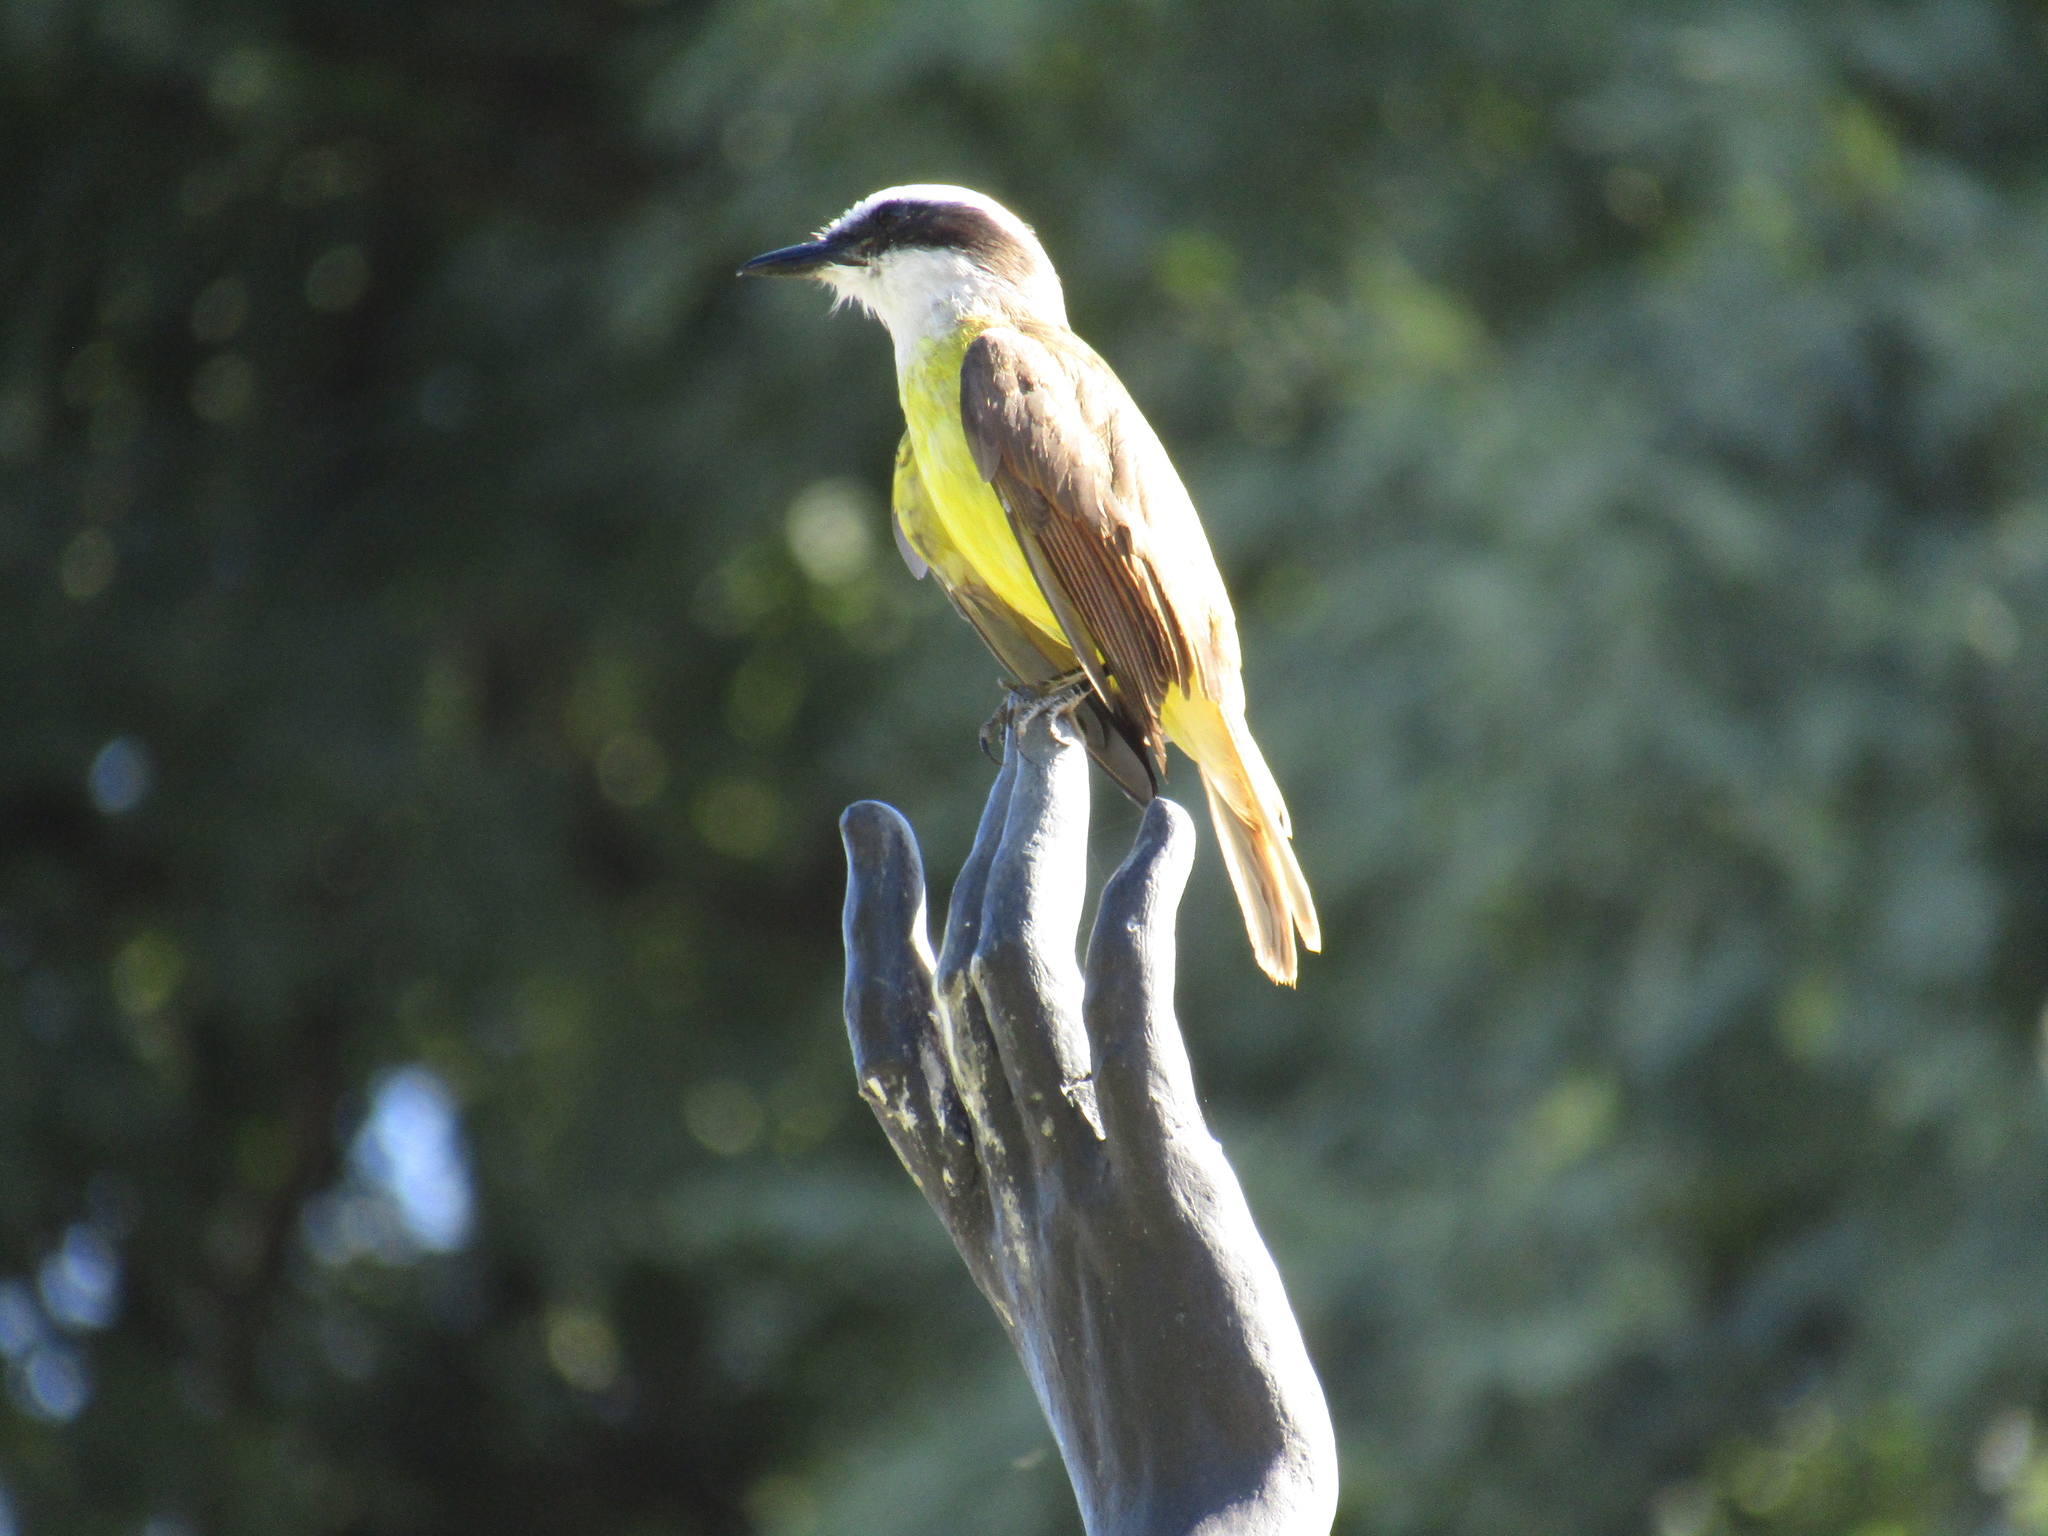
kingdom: Animalia
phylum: Chordata
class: Aves
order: Passeriformes
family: Tyrannidae
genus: Pitangus
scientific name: Pitangus sulphuratus
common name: Great kiskadee
